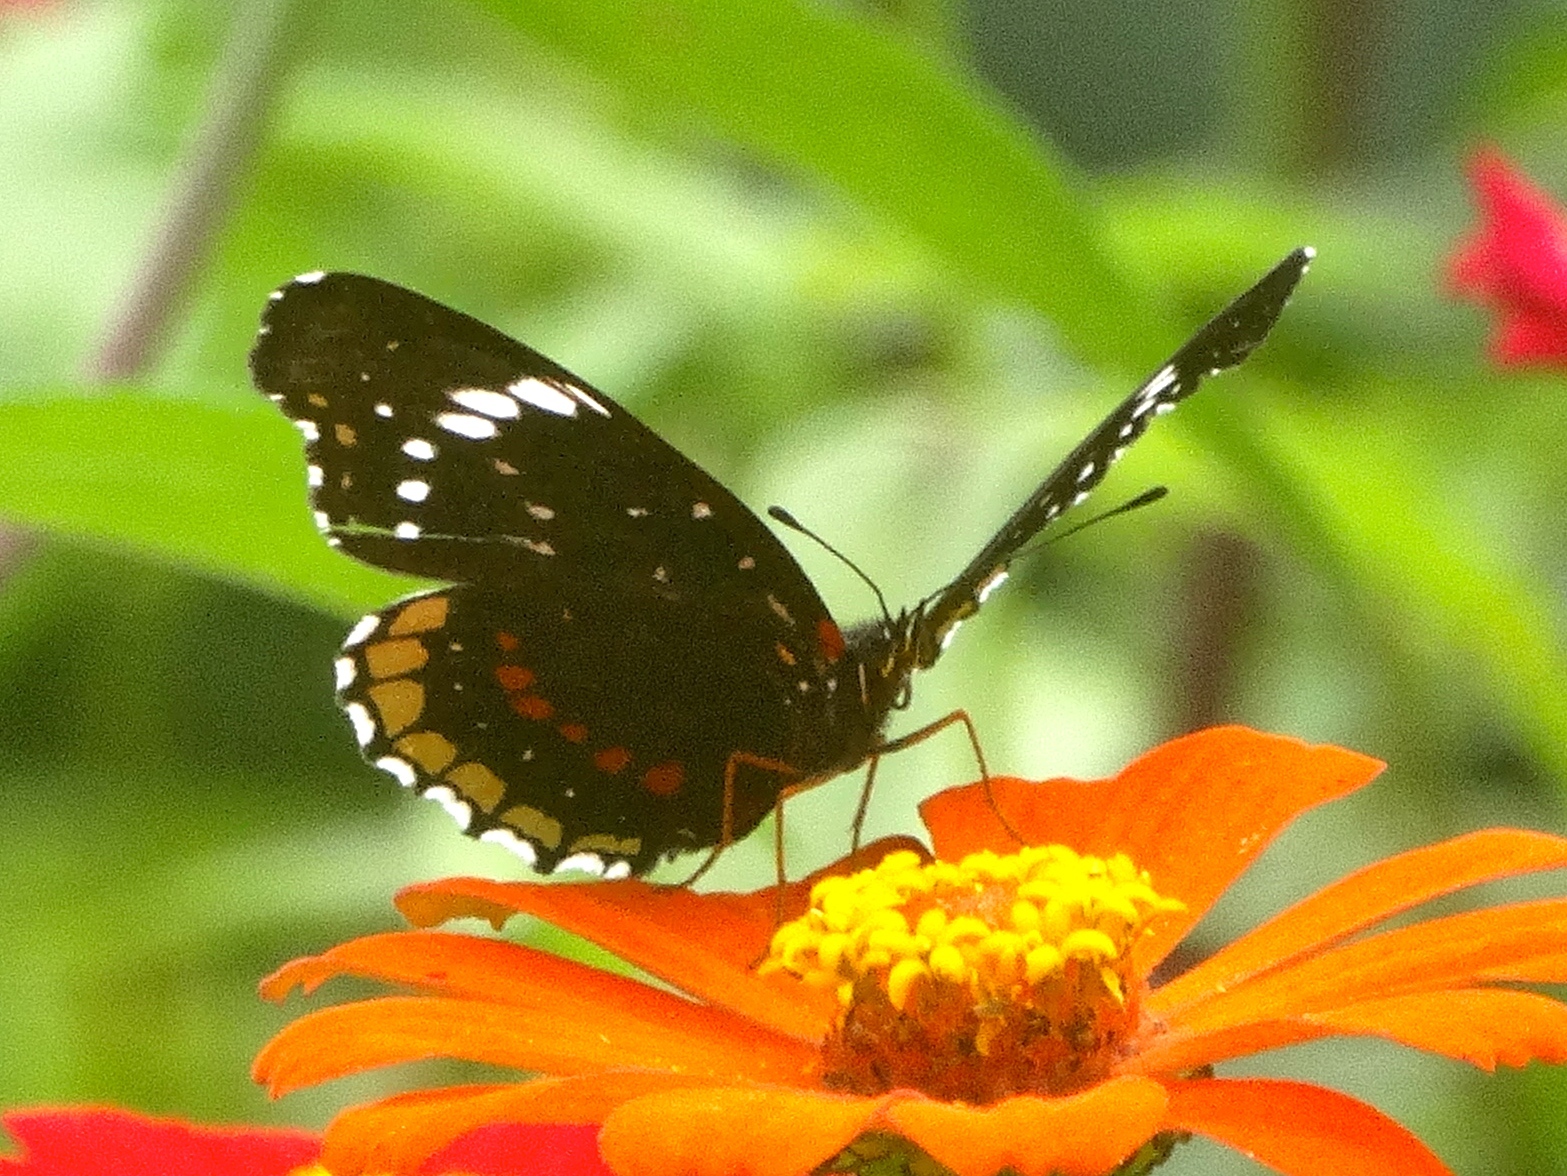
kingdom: Animalia
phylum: Arthropoda
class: Insecta
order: Lepidoptera
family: Nymphalidae
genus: Chlosyne
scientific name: Chlosyne hippodrome
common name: Simple patch
